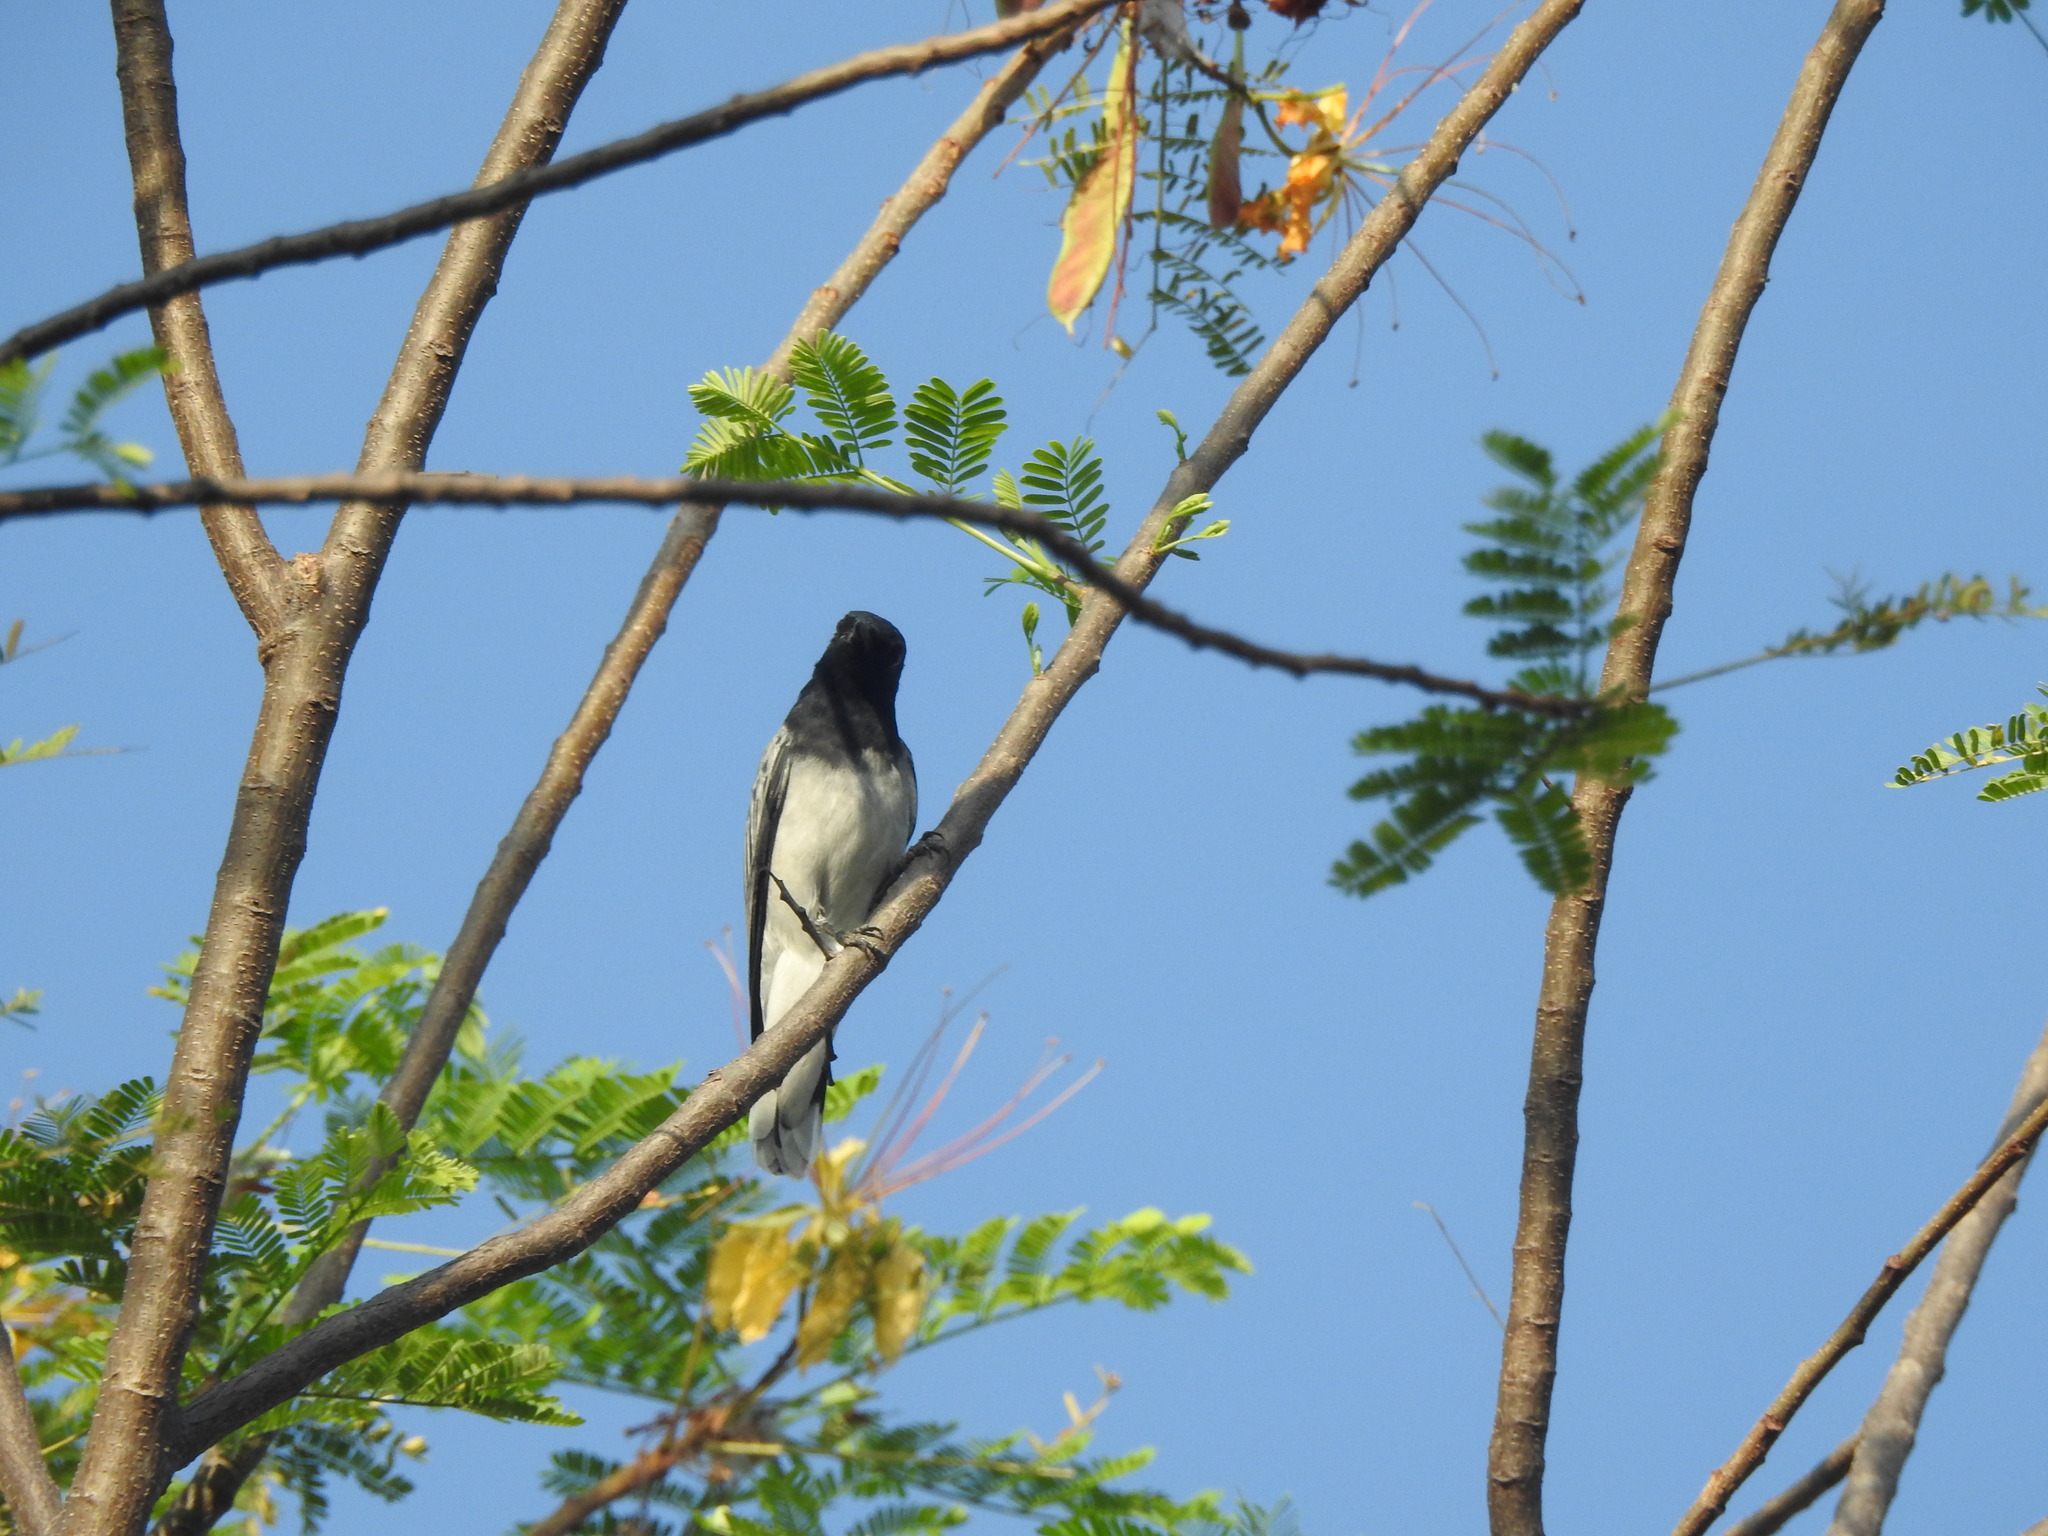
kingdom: Animalia
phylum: Chordata
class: Aves
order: Passeriformes
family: Campephagidae
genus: Coracina
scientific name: Coracina melanoptera
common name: Black-headed cuckooshrike
